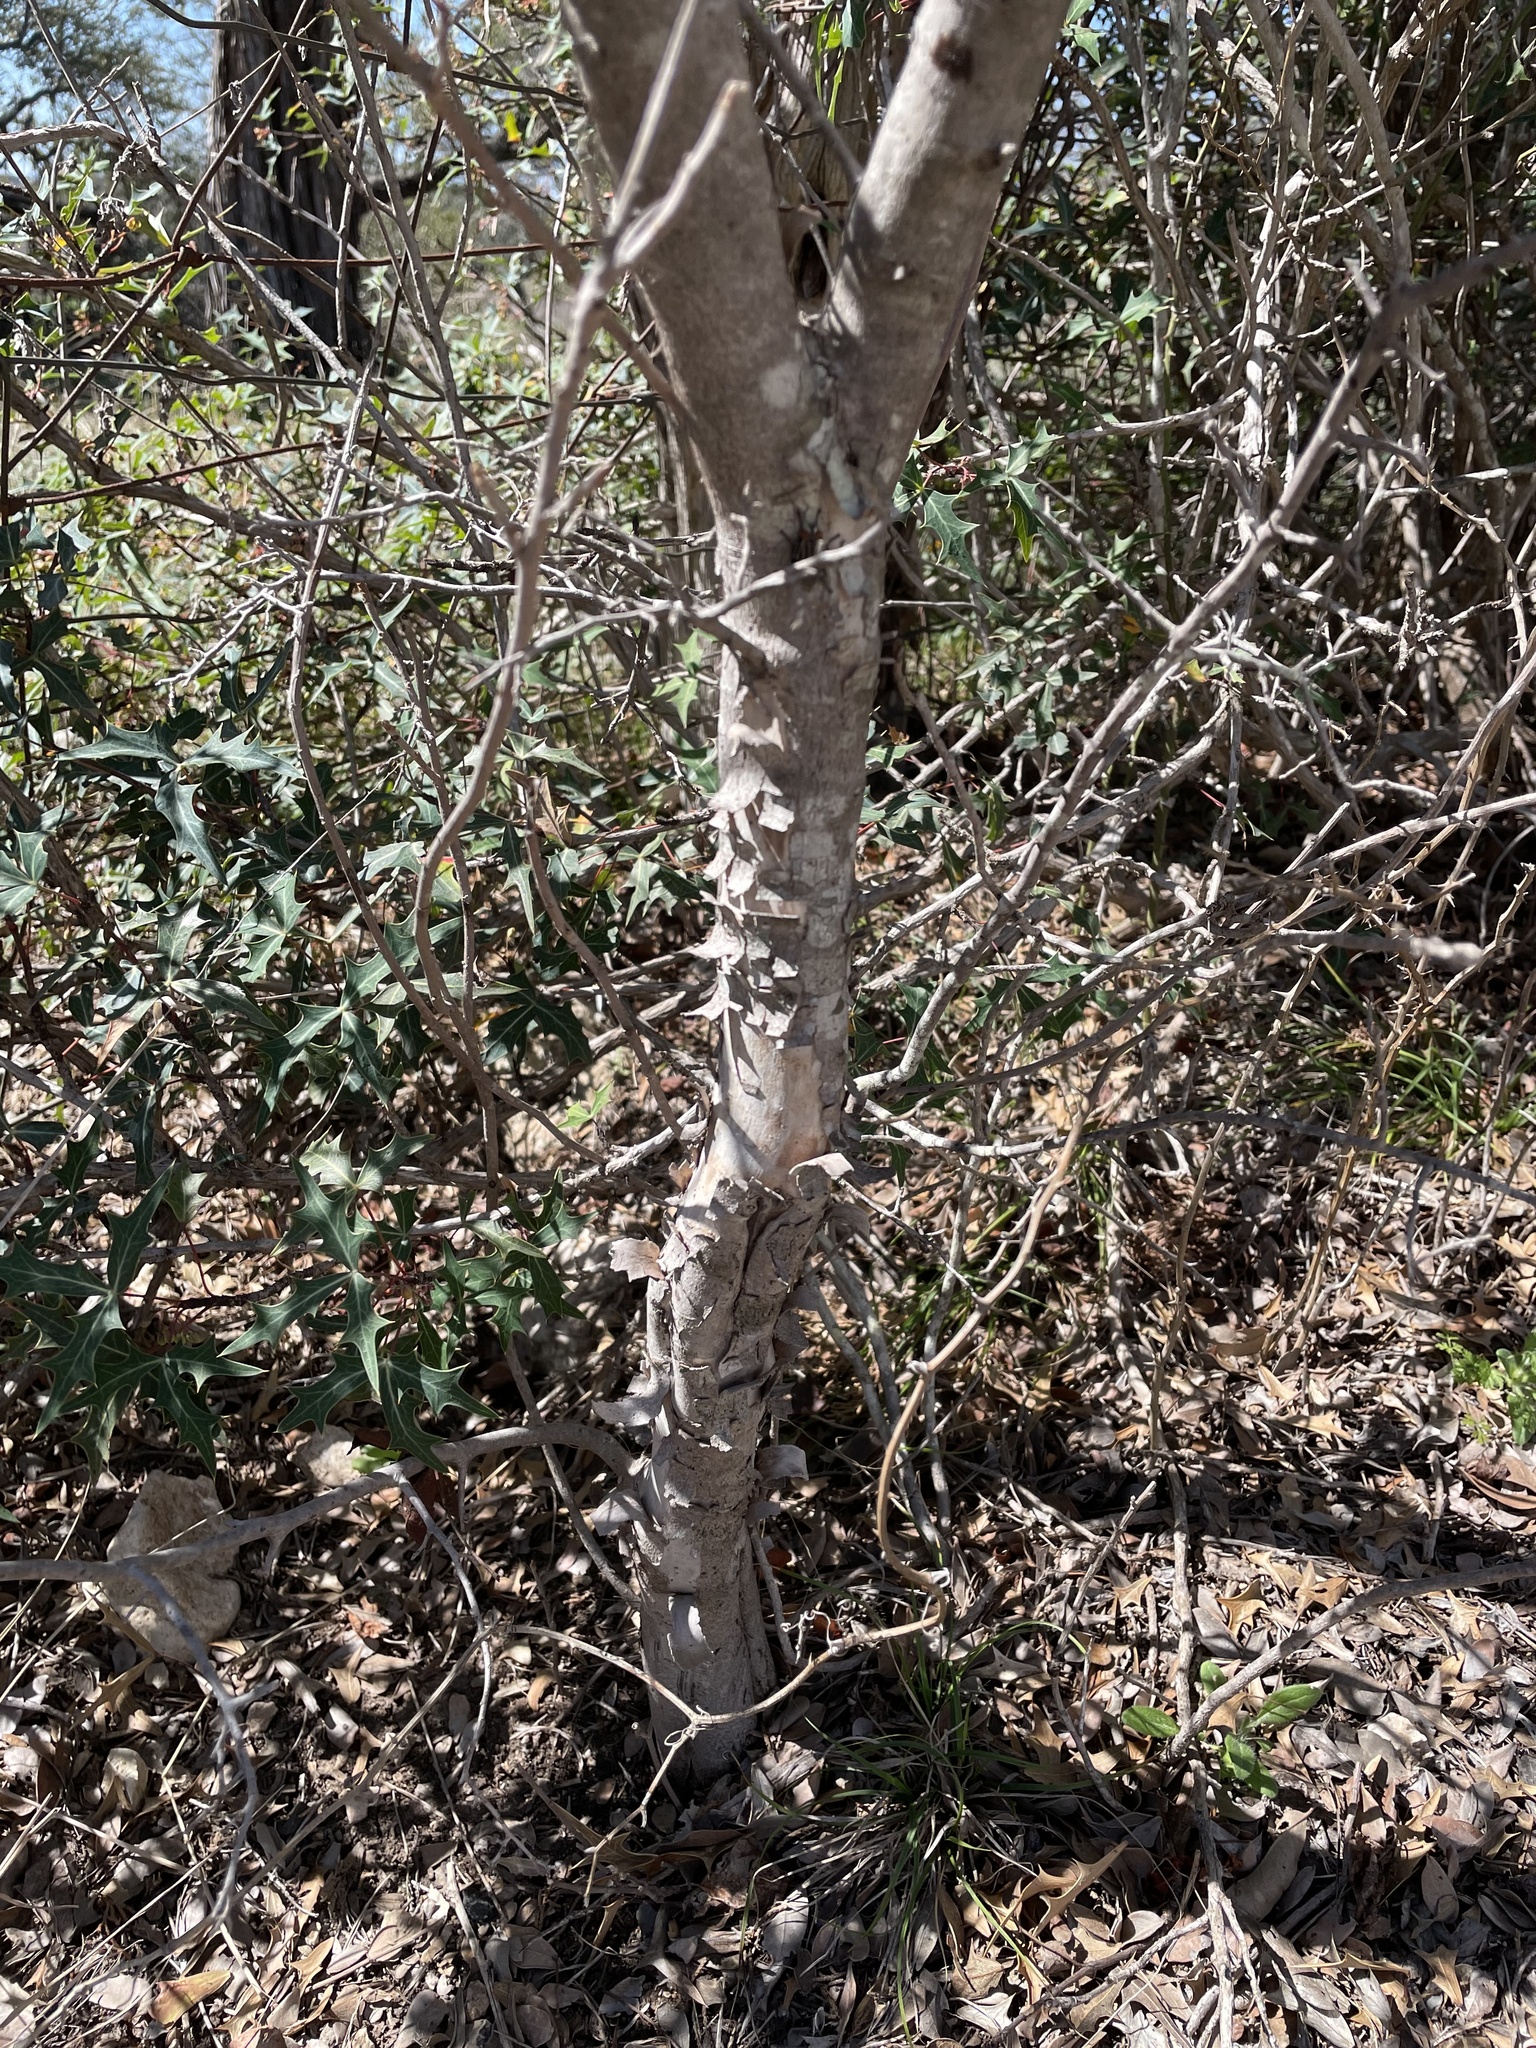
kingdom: Plantae
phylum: Tracheophyta
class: Magnoliopsida
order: Ericales
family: Ebenaceae
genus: Diospyros
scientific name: Diospyros texana
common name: Texas persimmon
